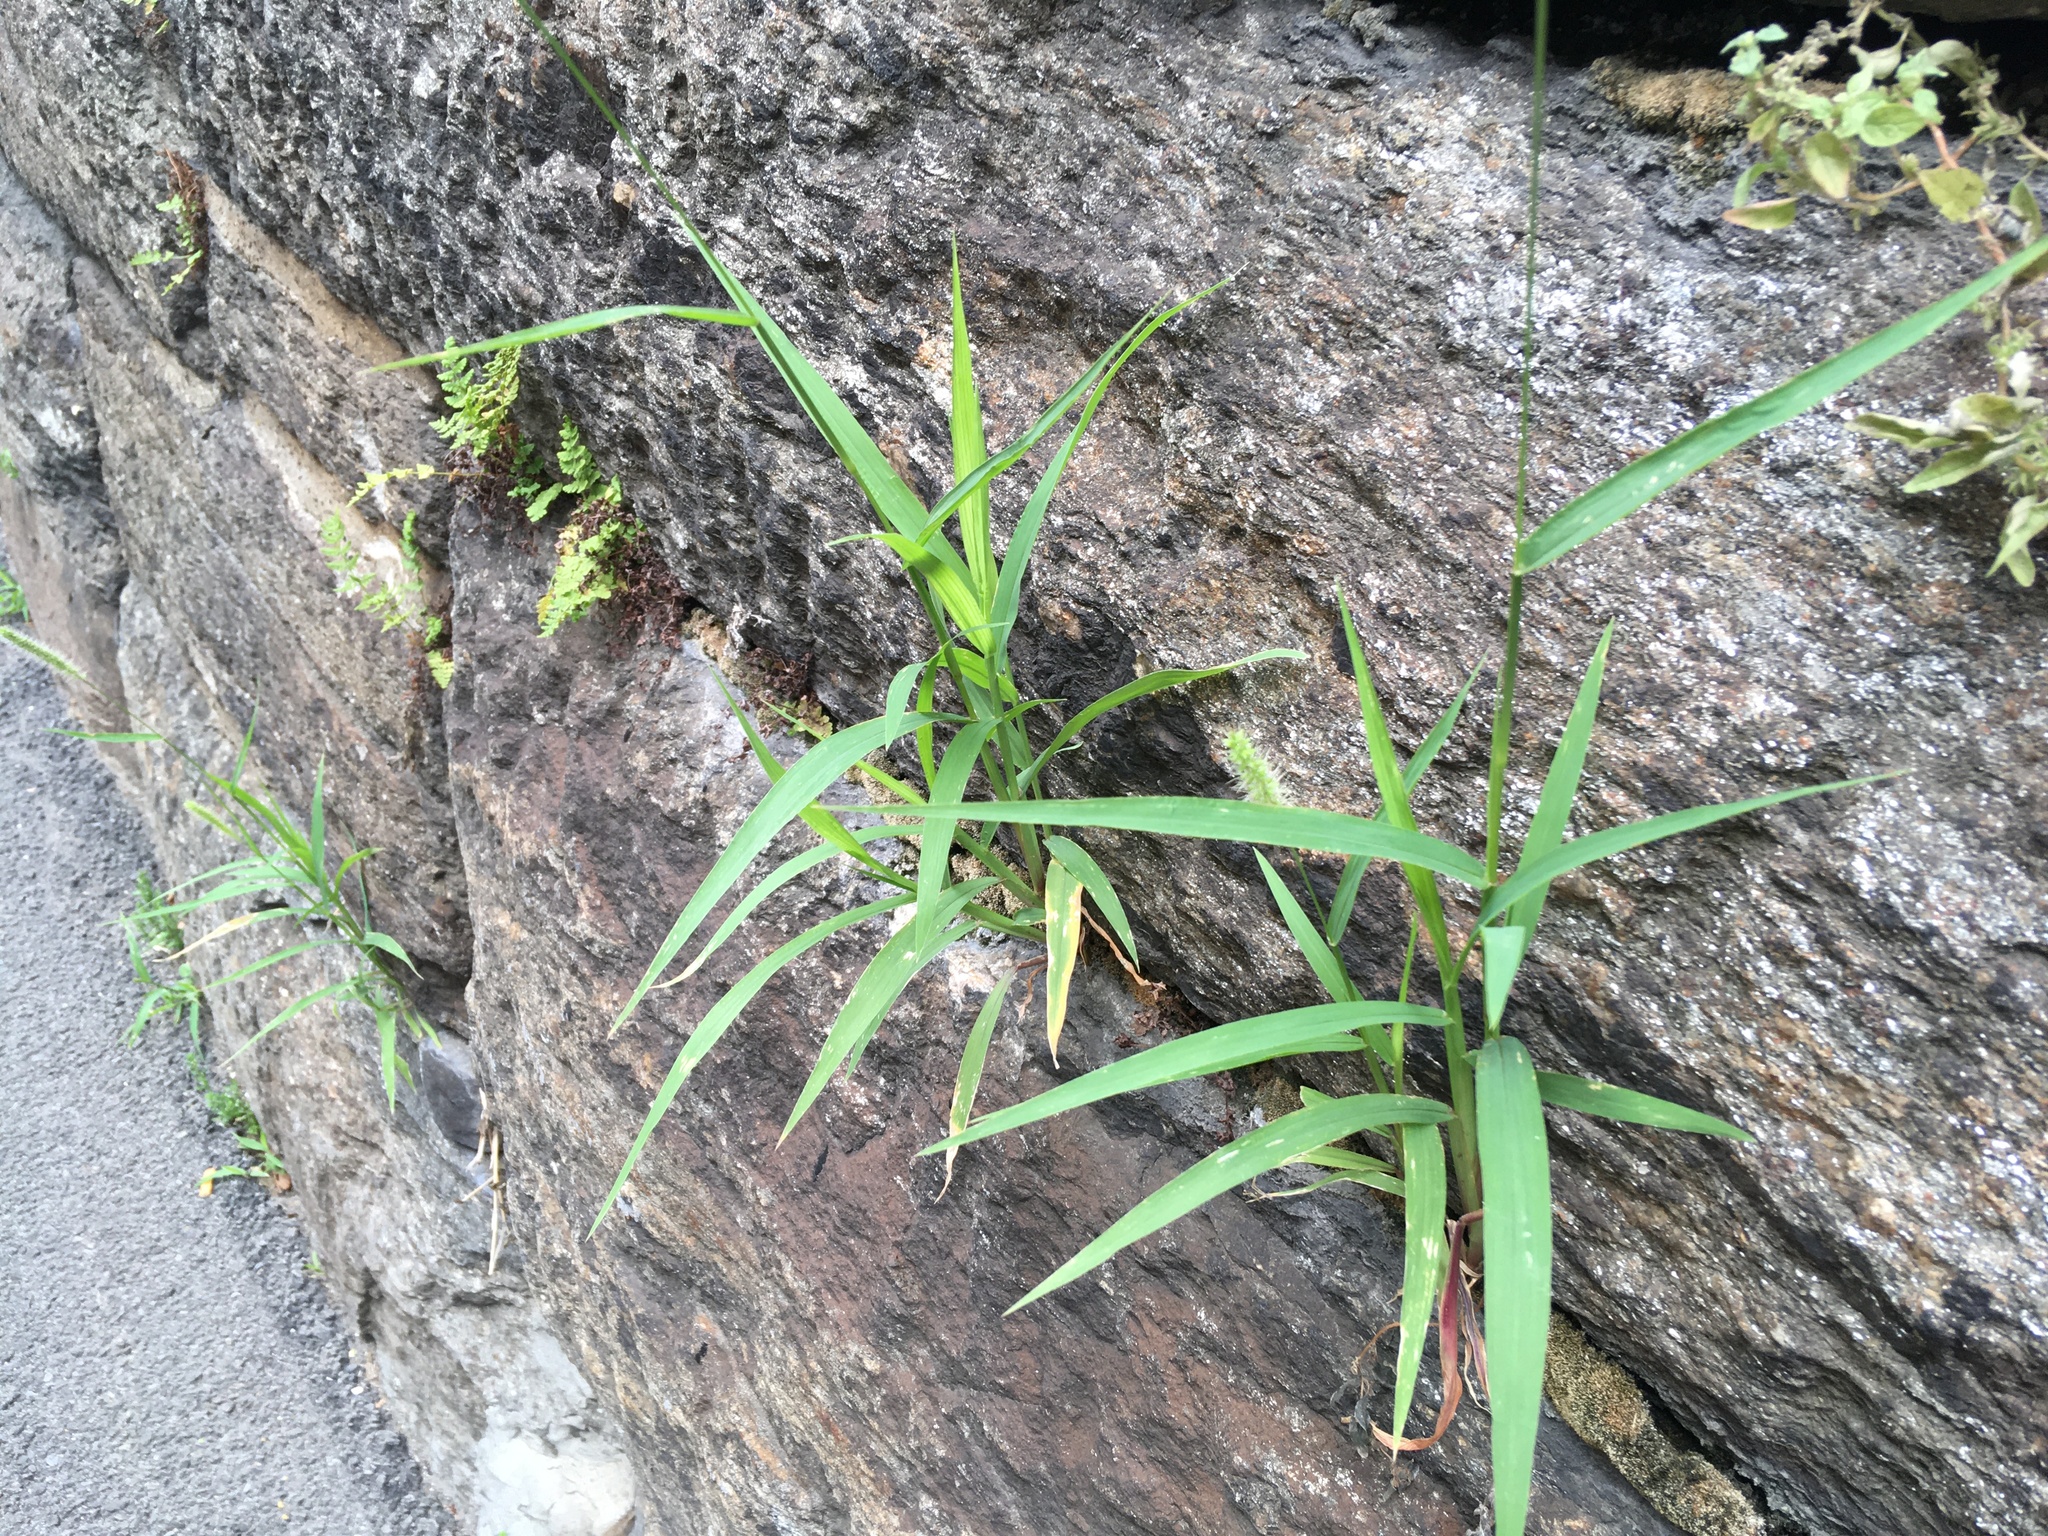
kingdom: Plantae
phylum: Tracheophyta
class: Liliopsida
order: Poales
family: Poaceae
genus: Setaria
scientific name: Setaria viridis
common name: Green bristlegrass
